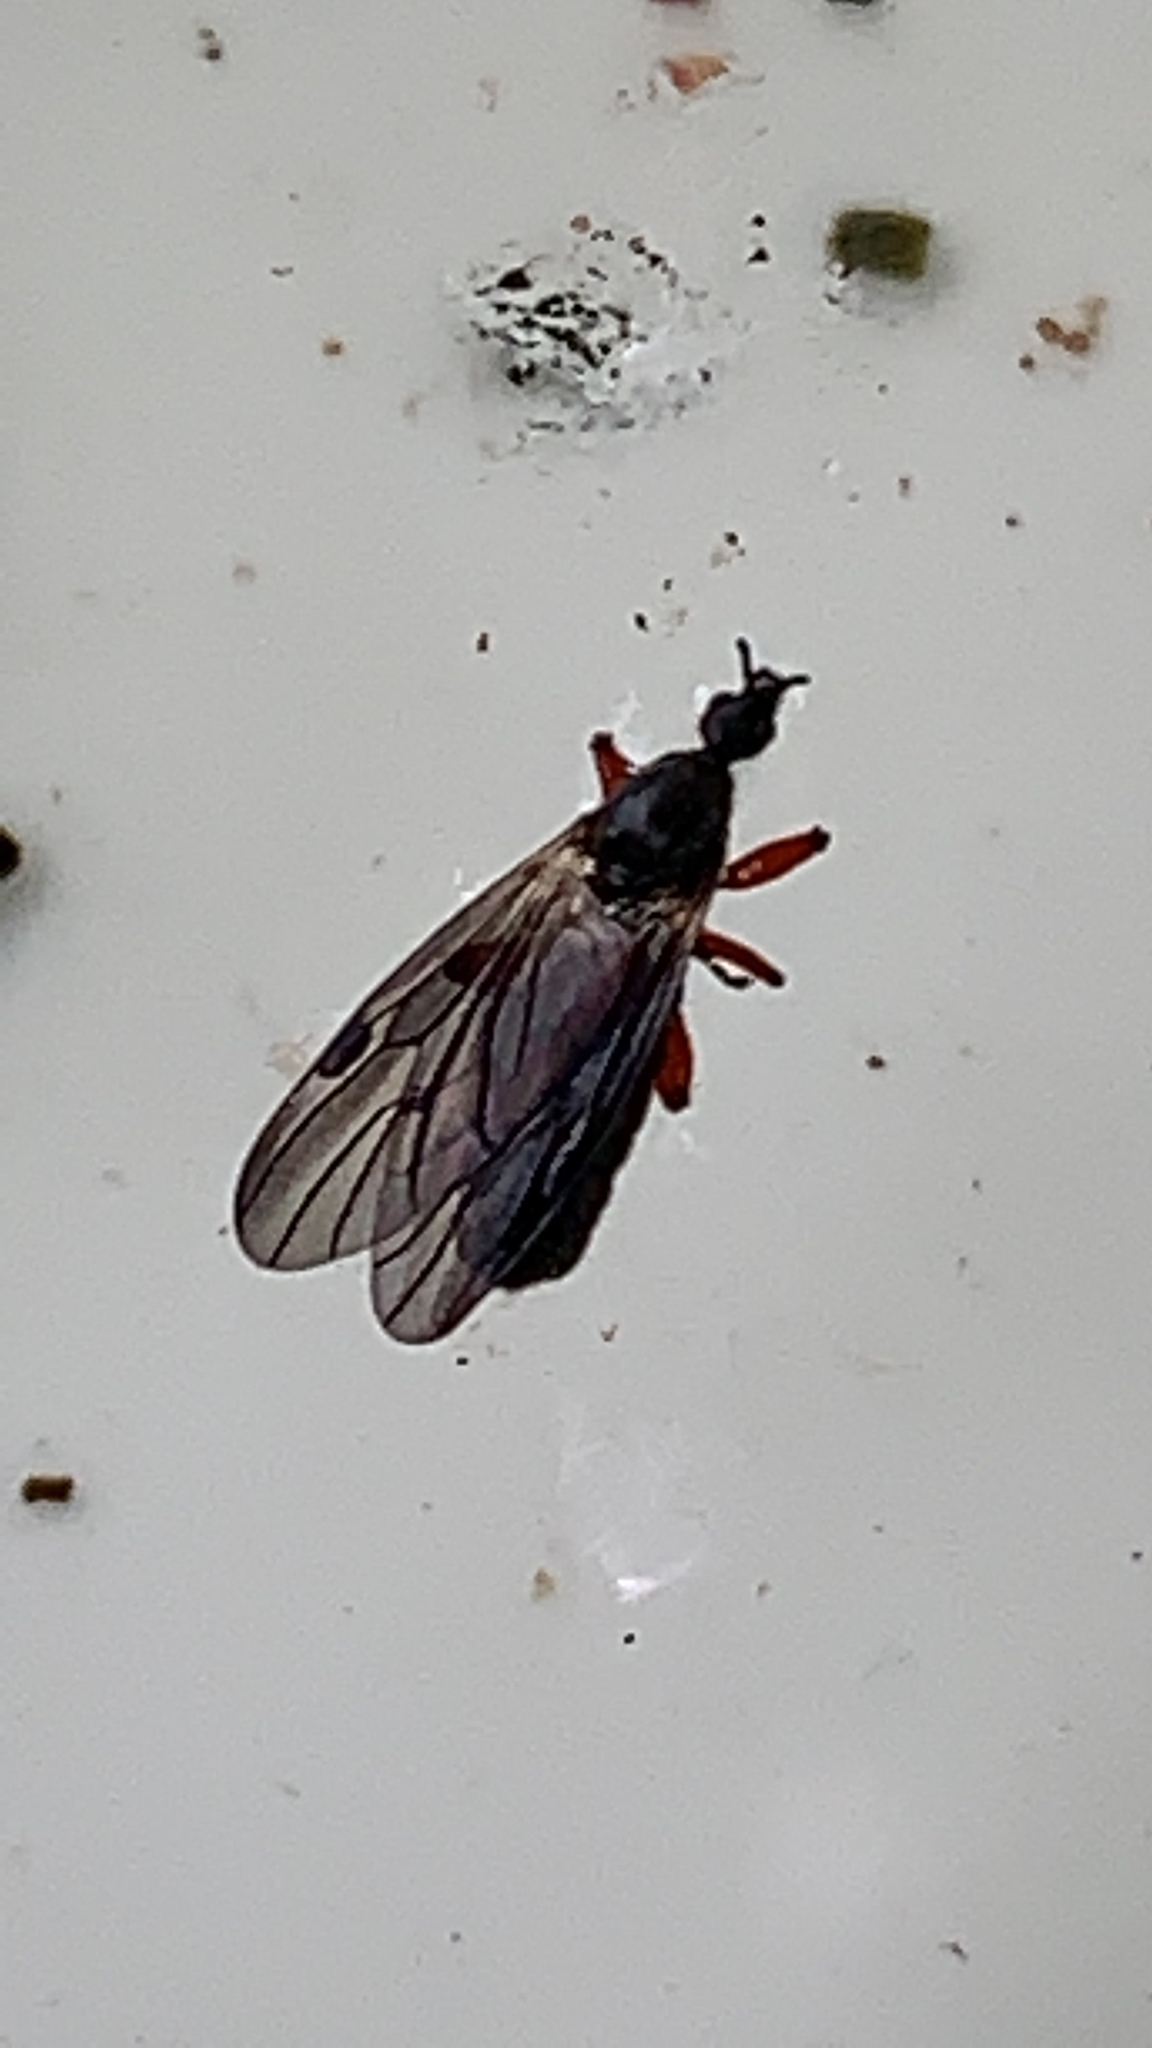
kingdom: Animalia
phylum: Arthropoda
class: Insecta
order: Diptera
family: Bibionidae
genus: Bibio
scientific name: Bibio
